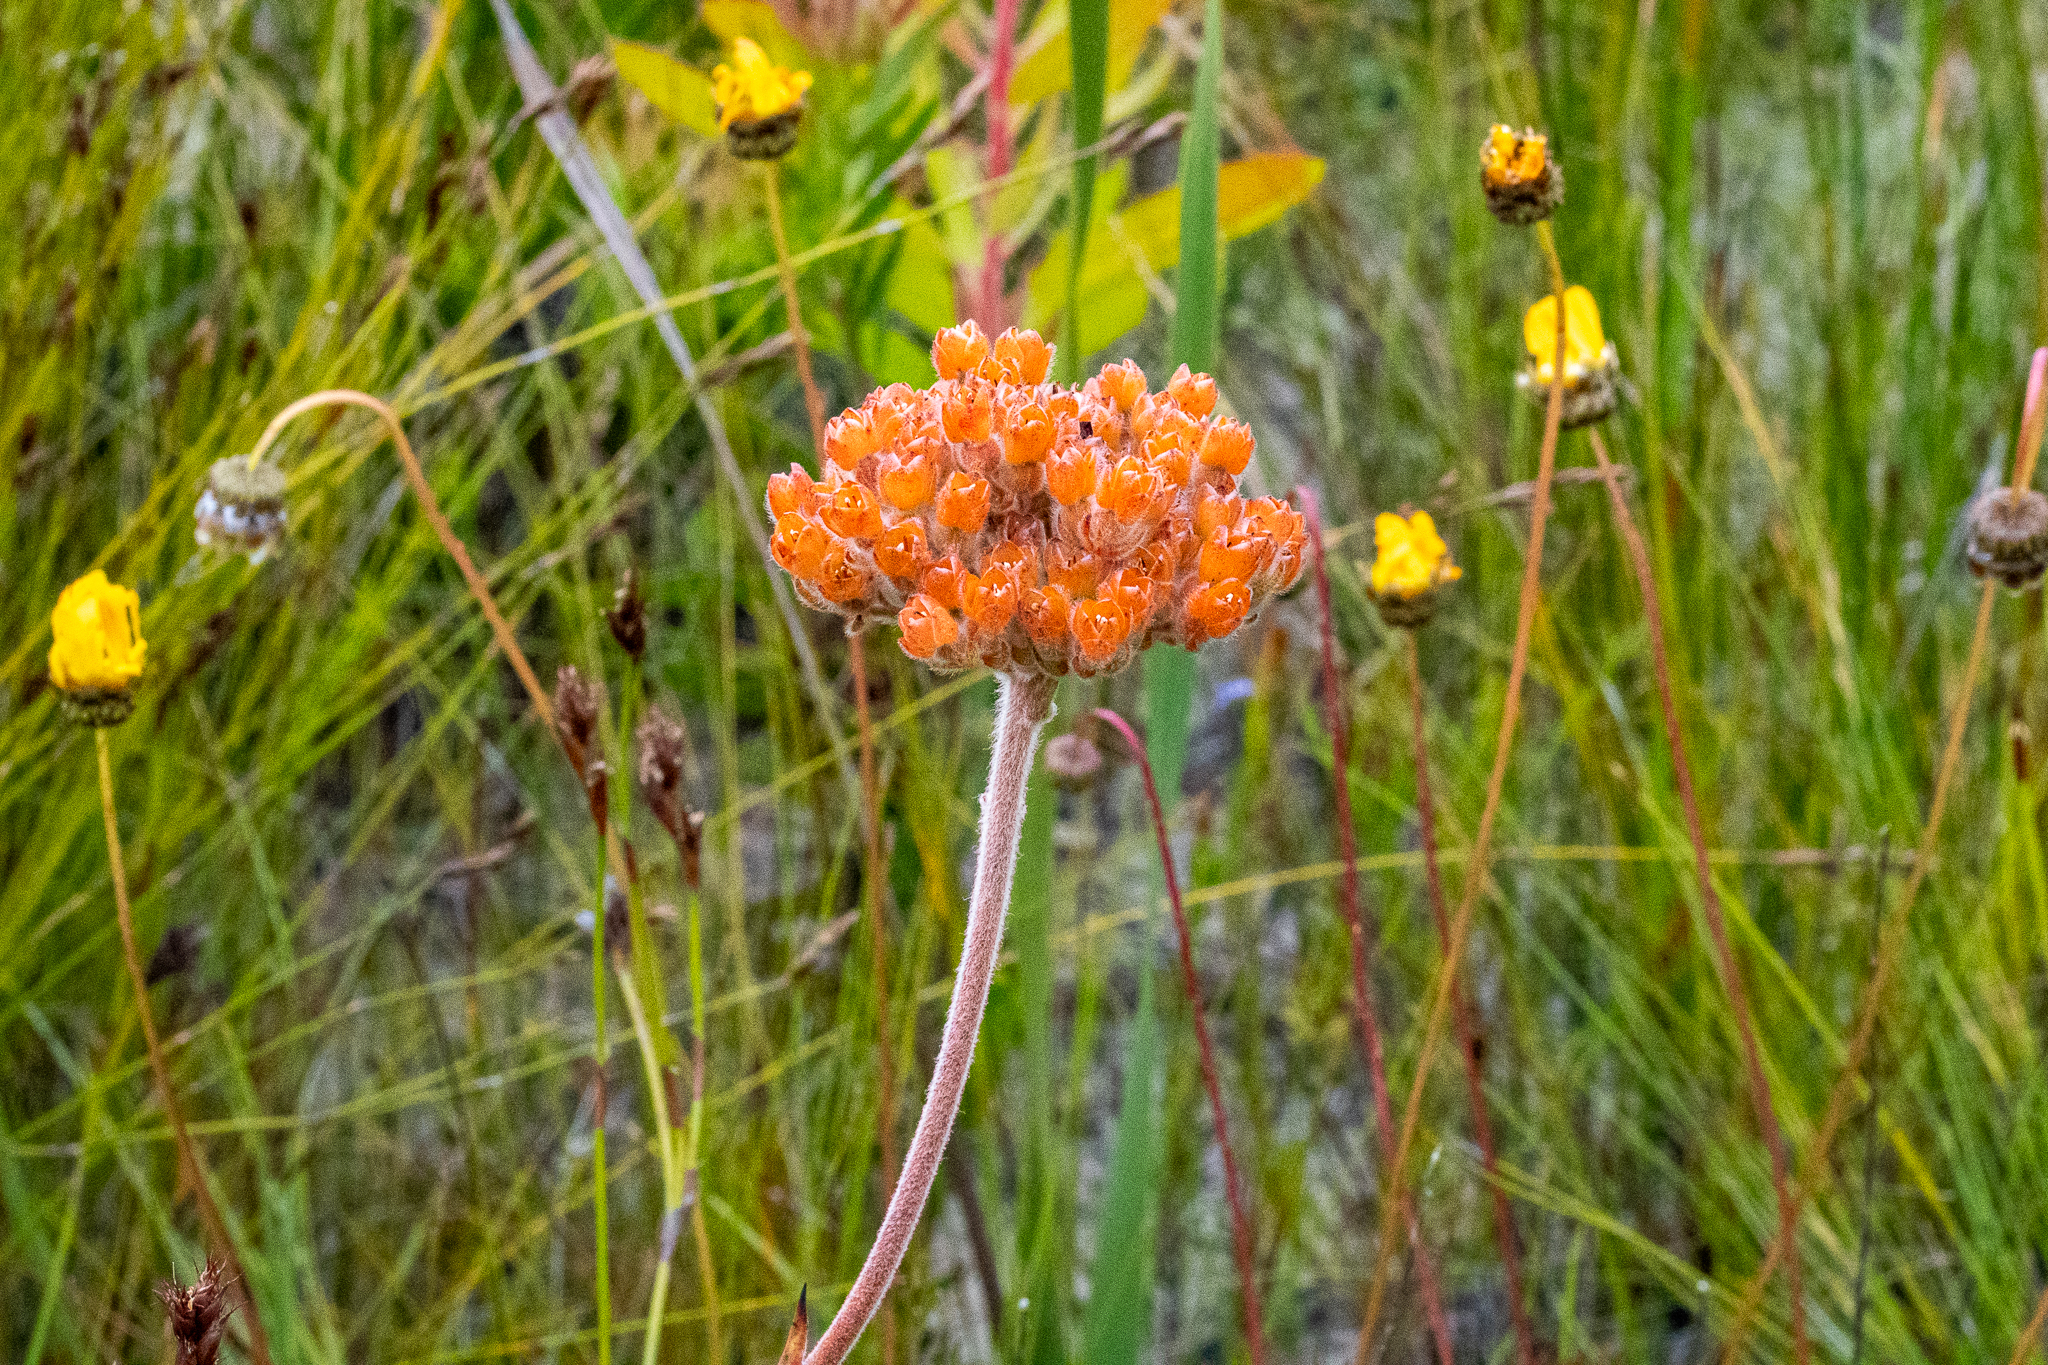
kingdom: Plantae
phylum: Tracheophyta
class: Liliopsida
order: Commelinales
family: Haemodoraceae
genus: Dilatris
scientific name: Dilatris pillansii
